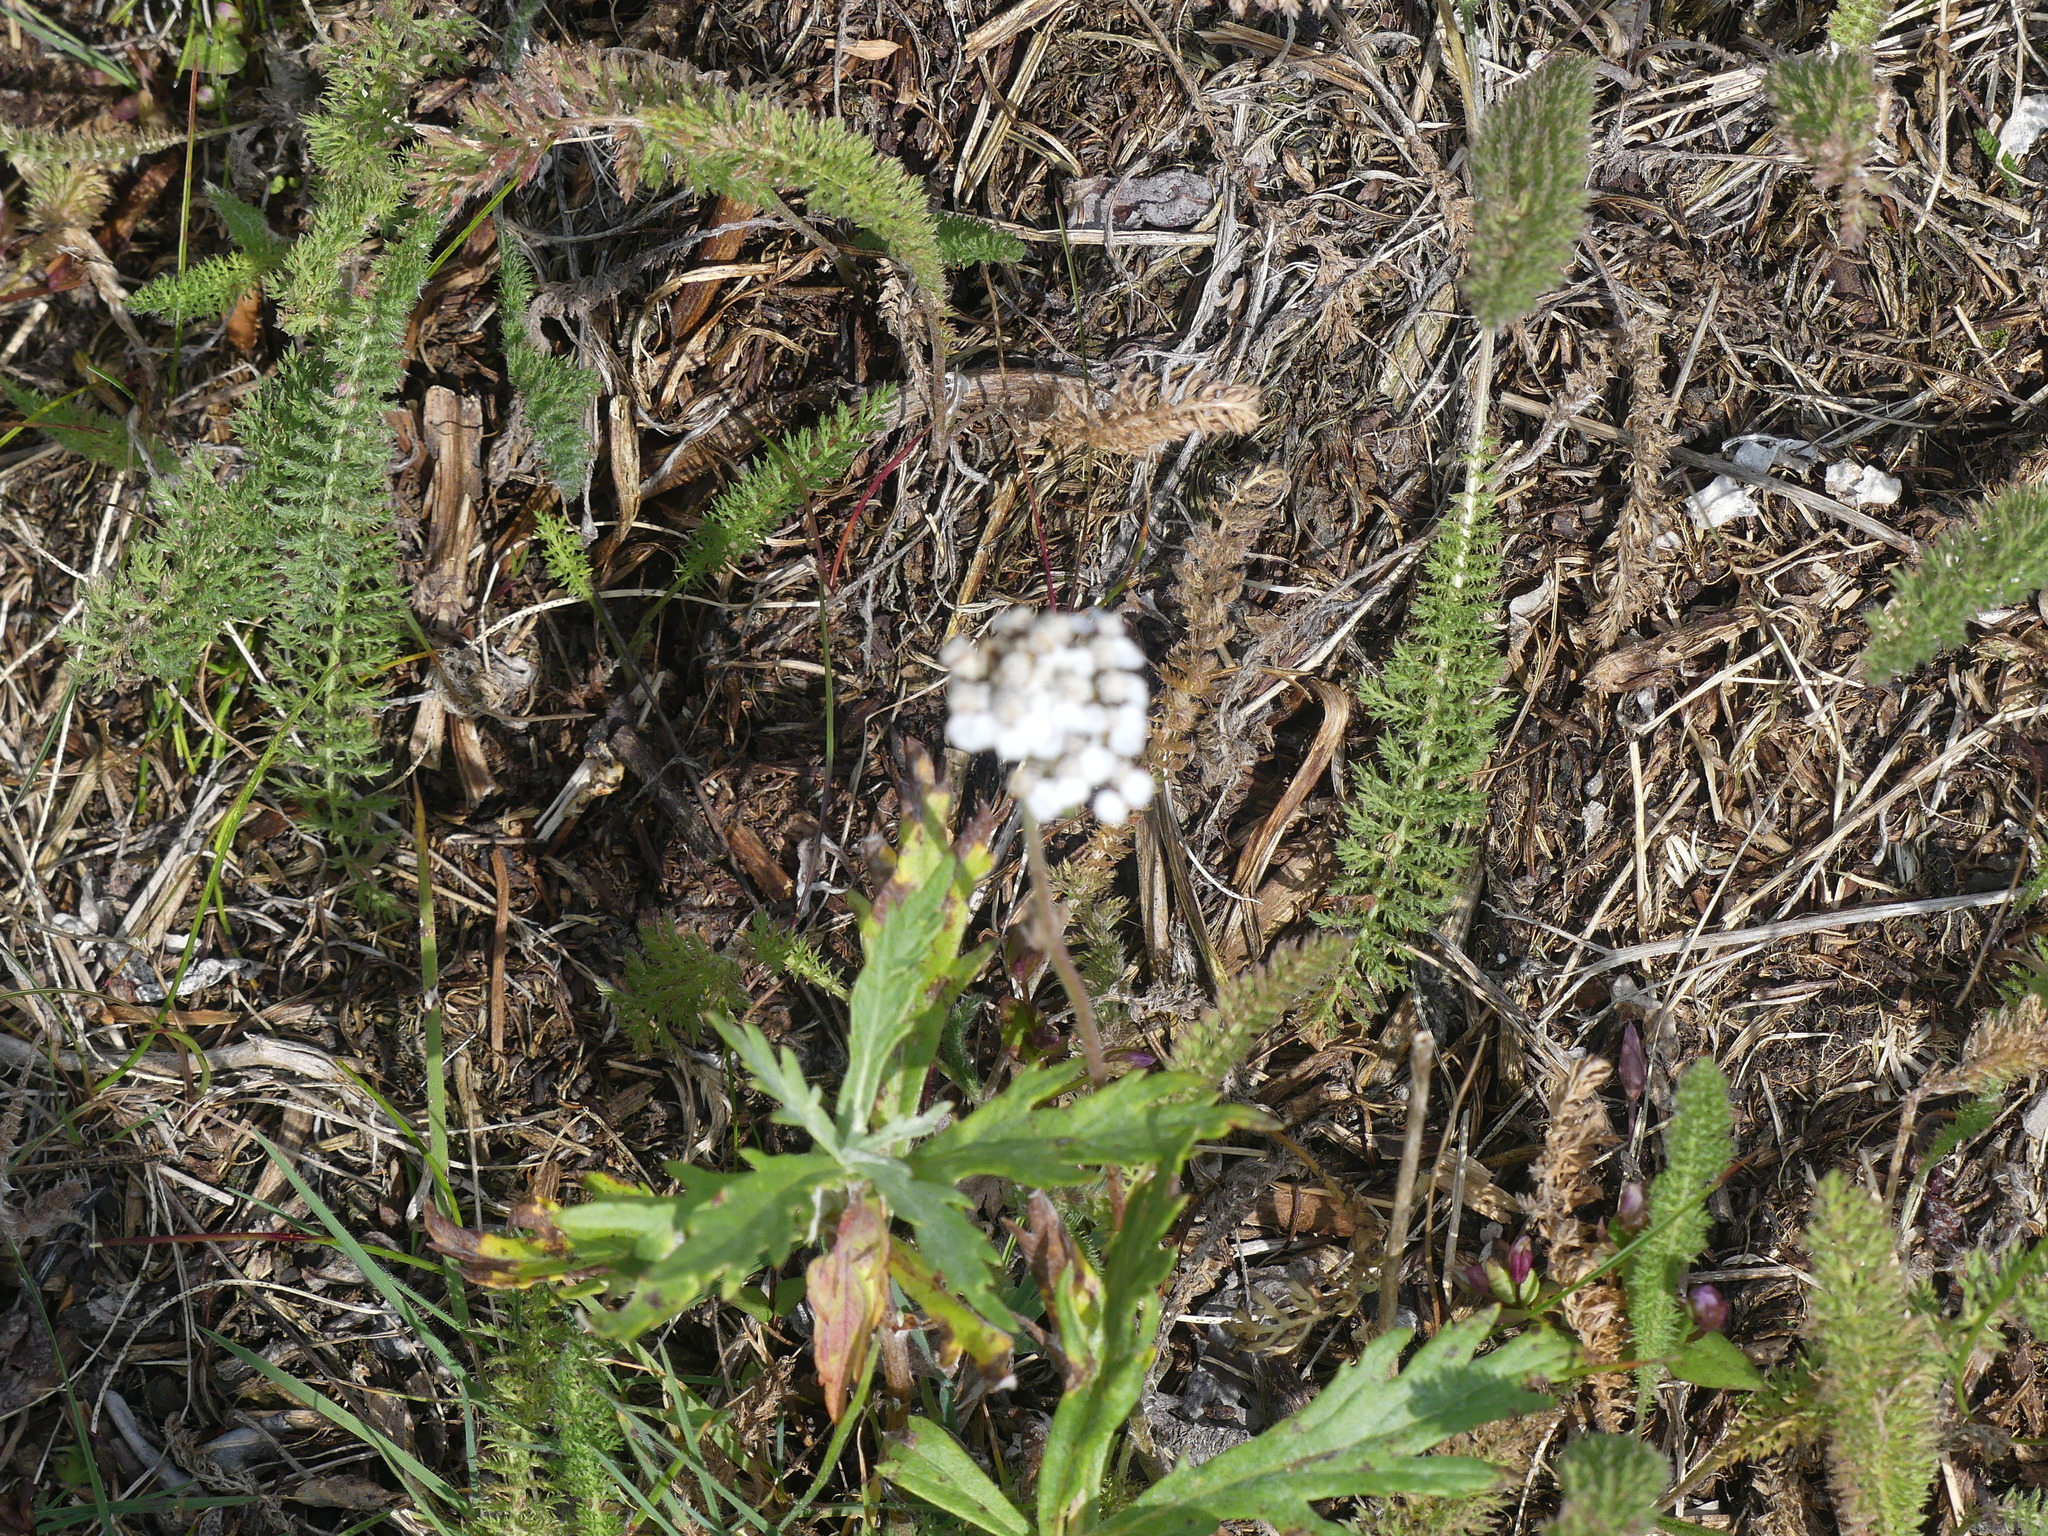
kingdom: Plantae
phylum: Tracheophyta
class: Magnoliopsida
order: Asterales
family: Asteraceae
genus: Achillea
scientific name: Achillea millefolium
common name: Yarrow
